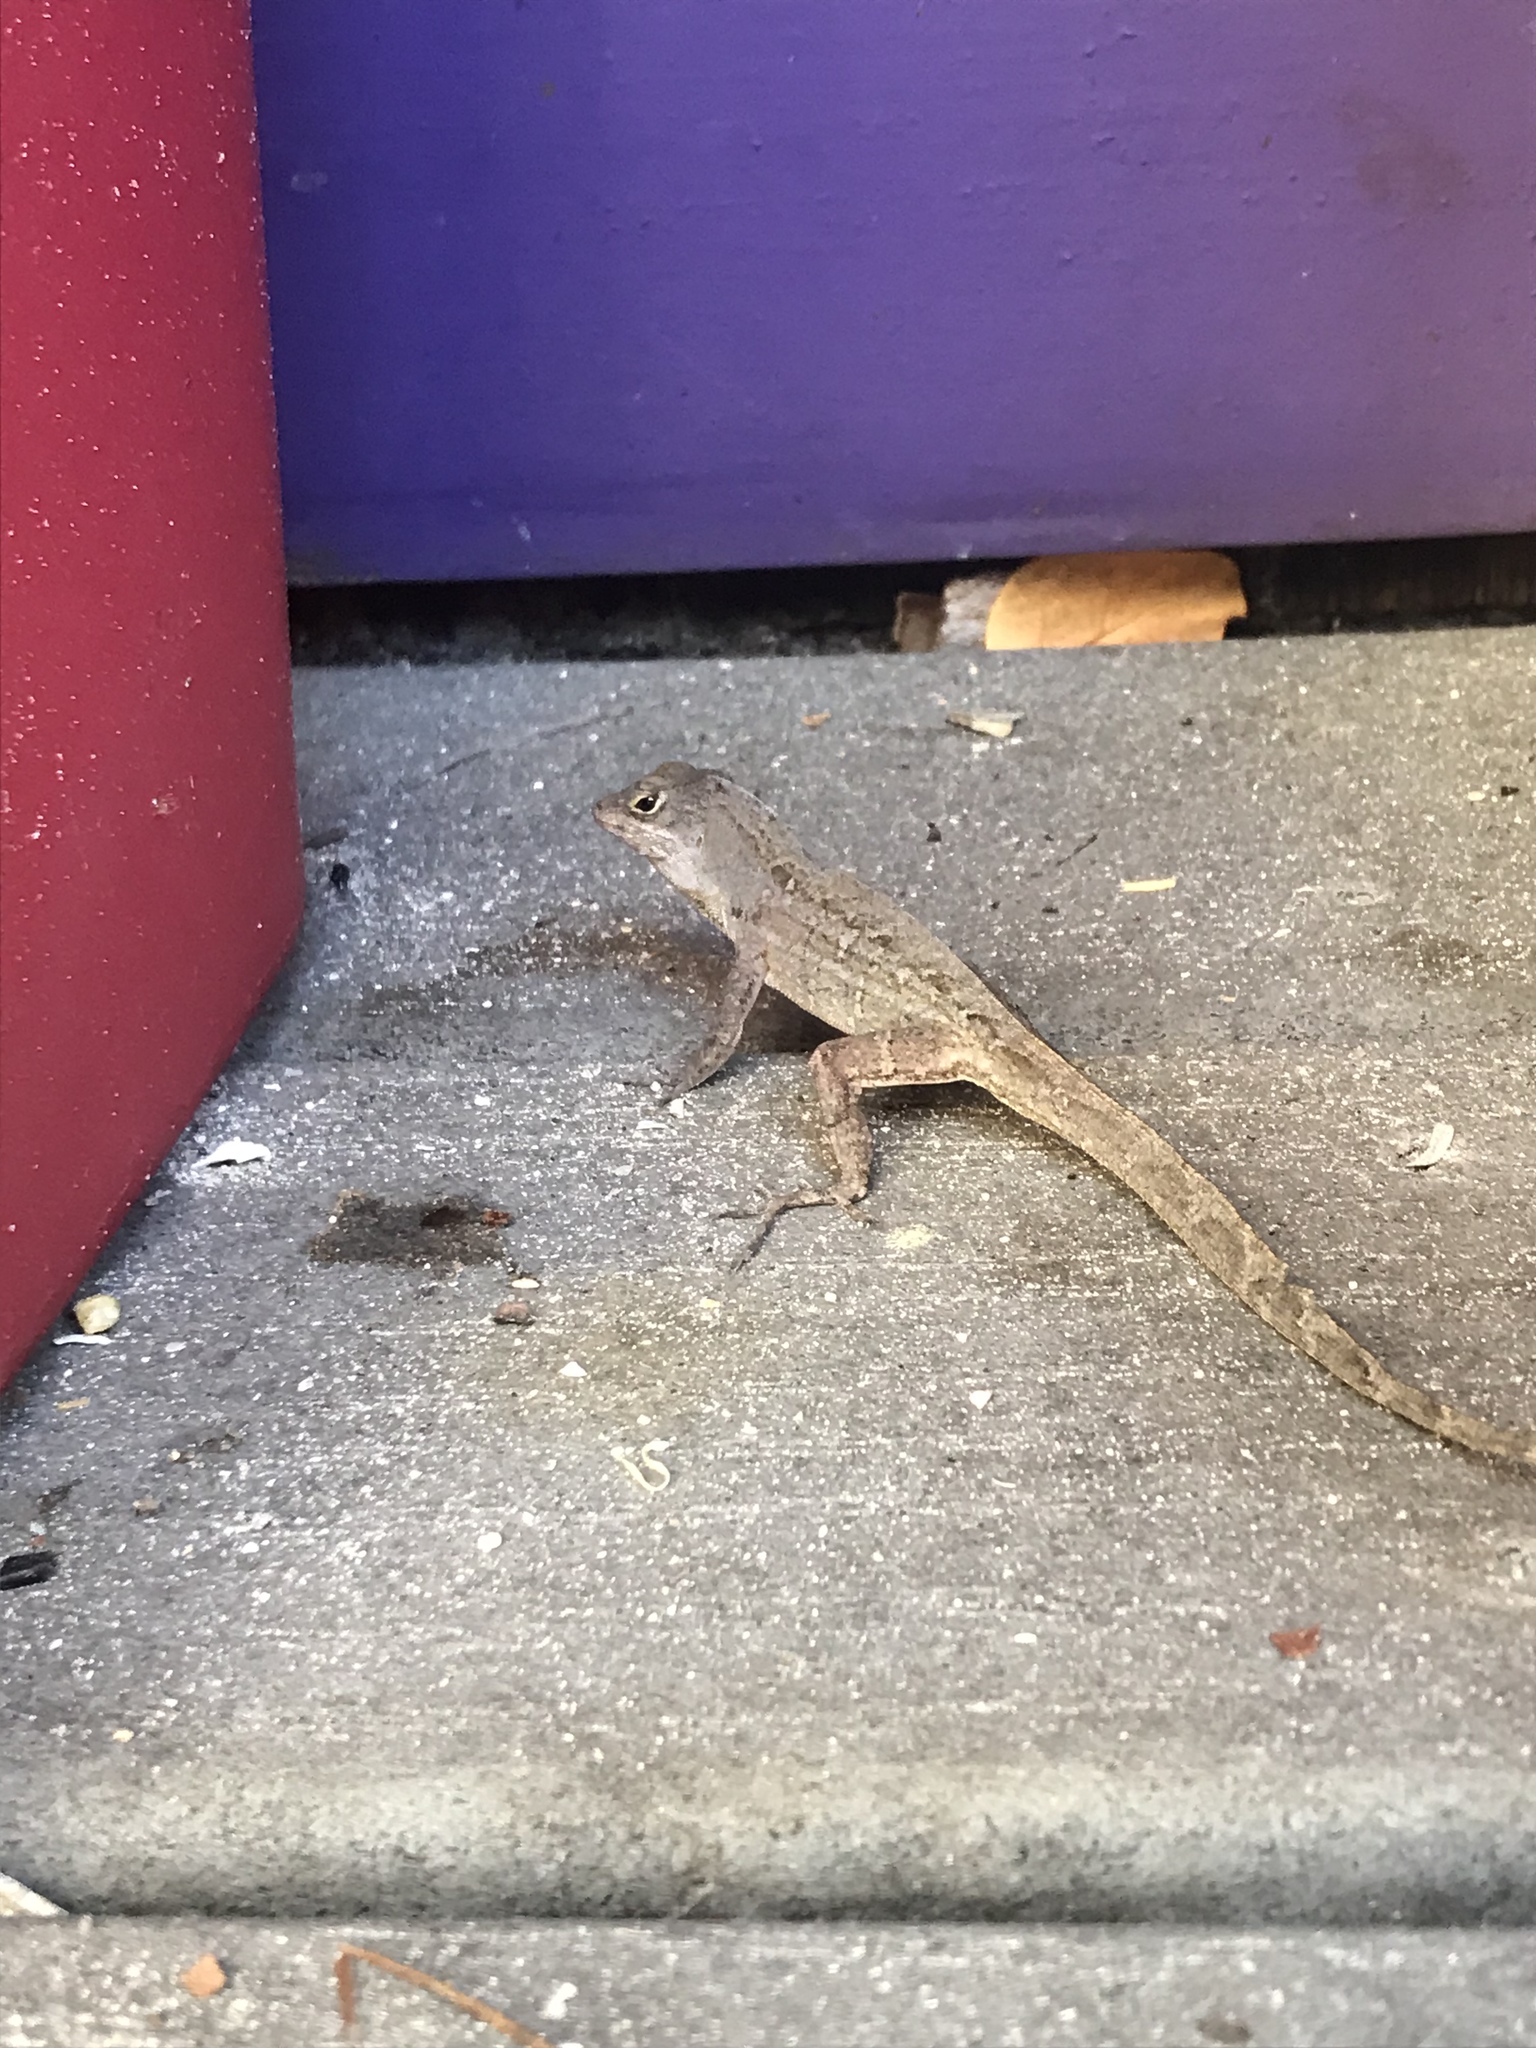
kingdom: Animalia
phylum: Chordata
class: Squamata
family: Dactyloidae
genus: Anolis
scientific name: Anolis sagrei
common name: Brown anole
